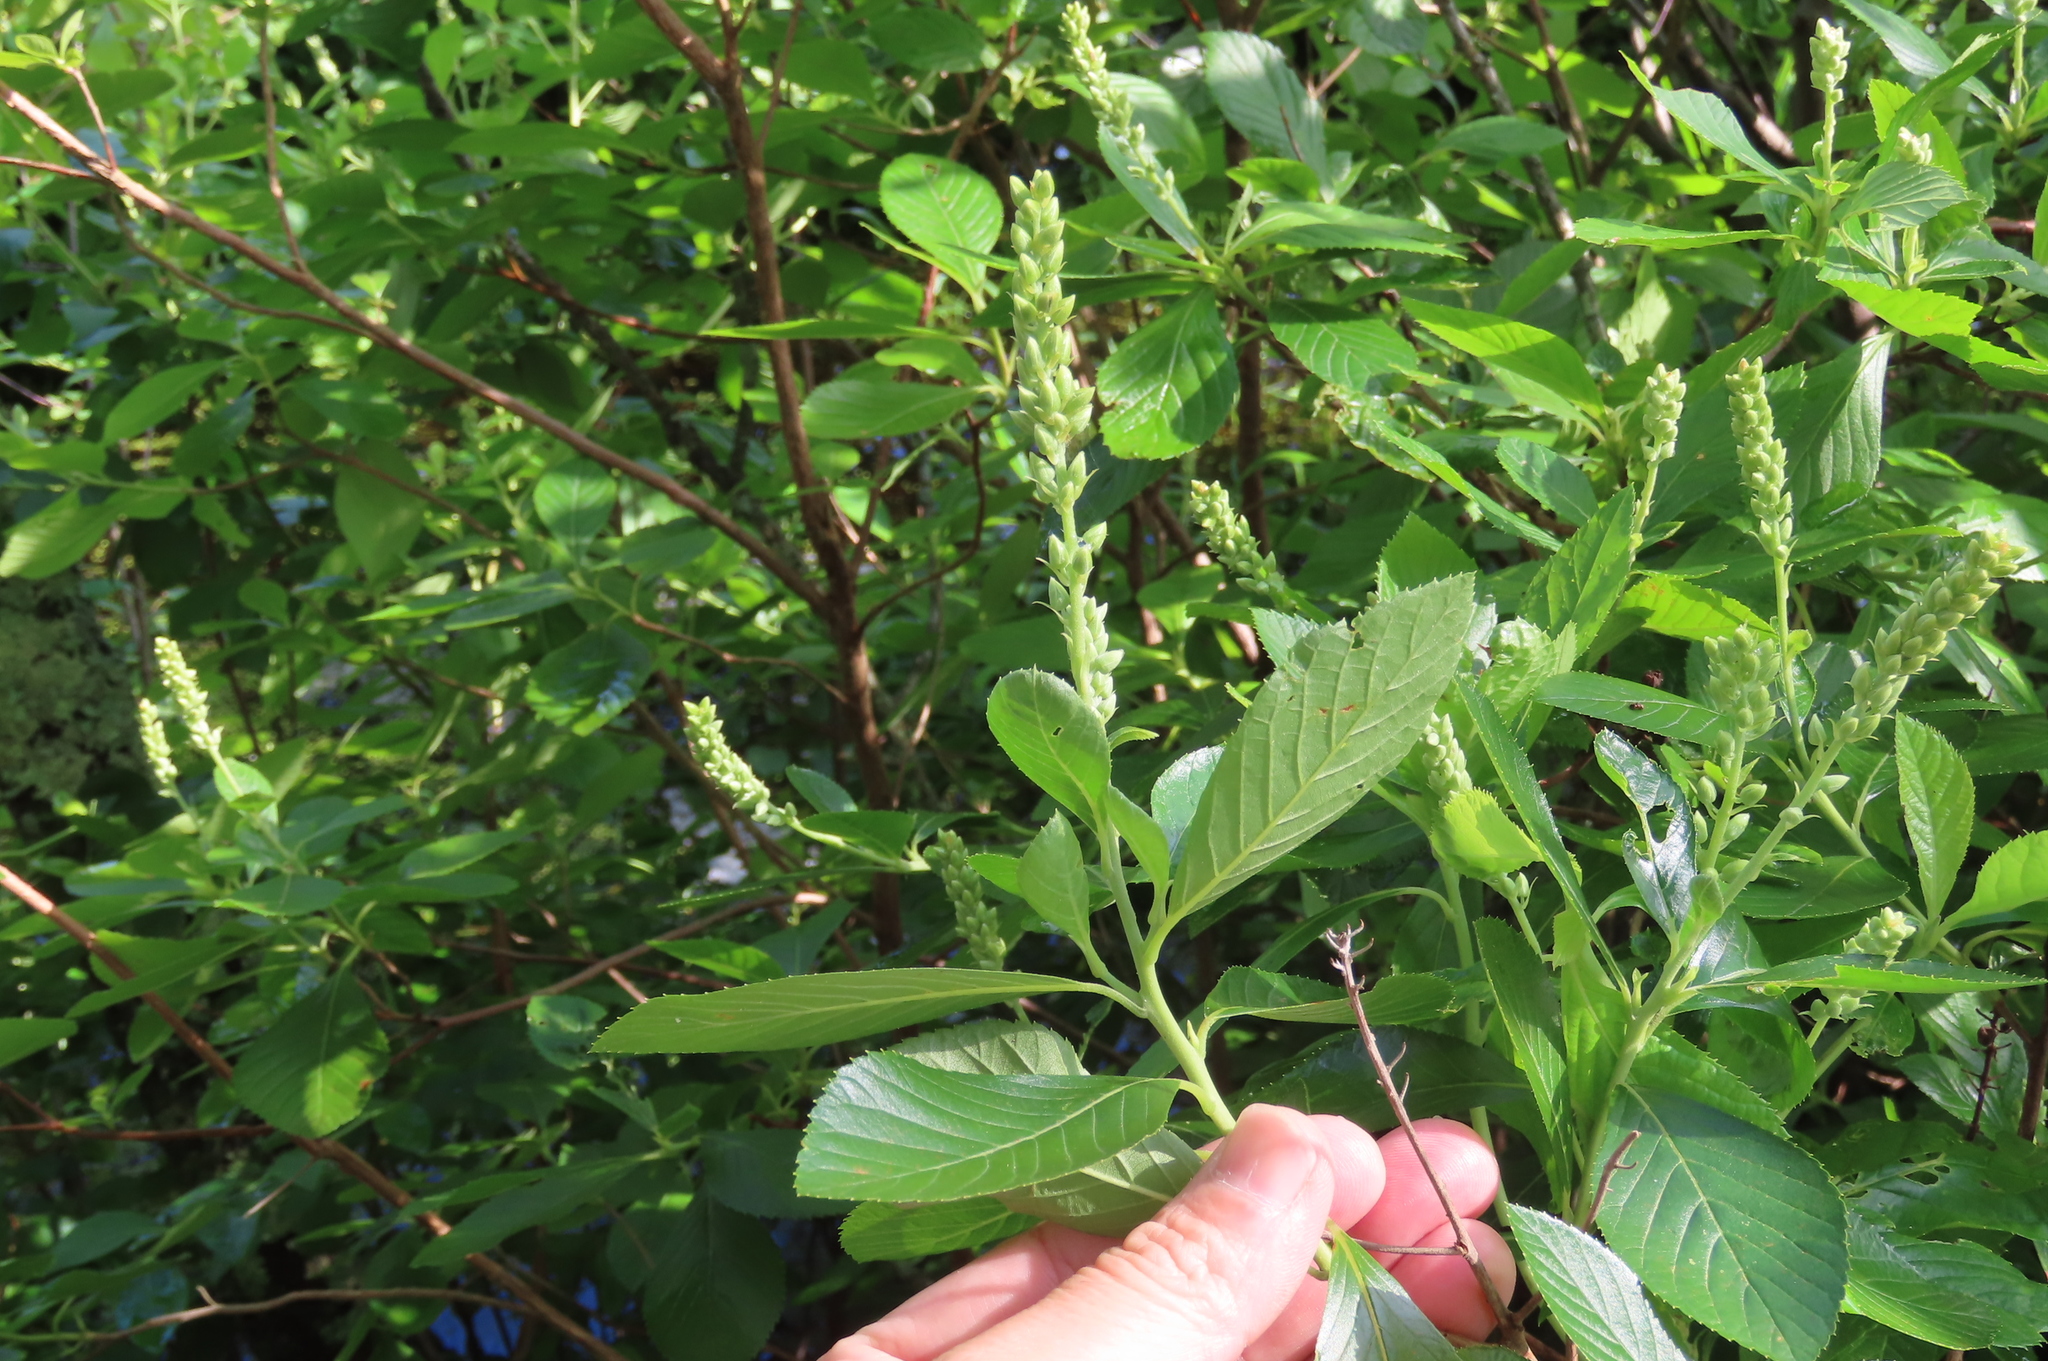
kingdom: Plantae
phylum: Tracheophyta
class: Magnoliopsida
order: Ericales
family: Clethraceae
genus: Clethra
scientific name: Clethra alnifolia
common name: Sweet pepperbush
